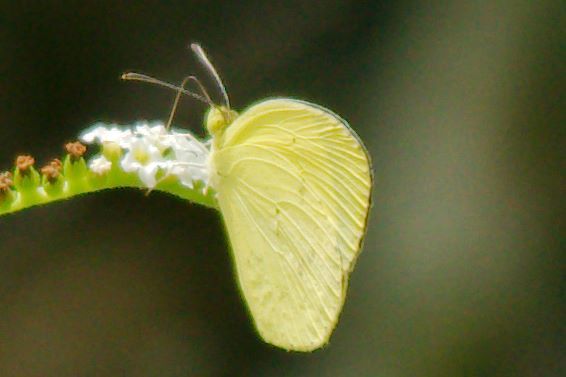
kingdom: Animalia
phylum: Arthropoda
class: Insecta
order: Lepidoptera
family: Pieridae
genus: Pyrisitia
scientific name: Pyrisitia nise
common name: Mimosa yellow
